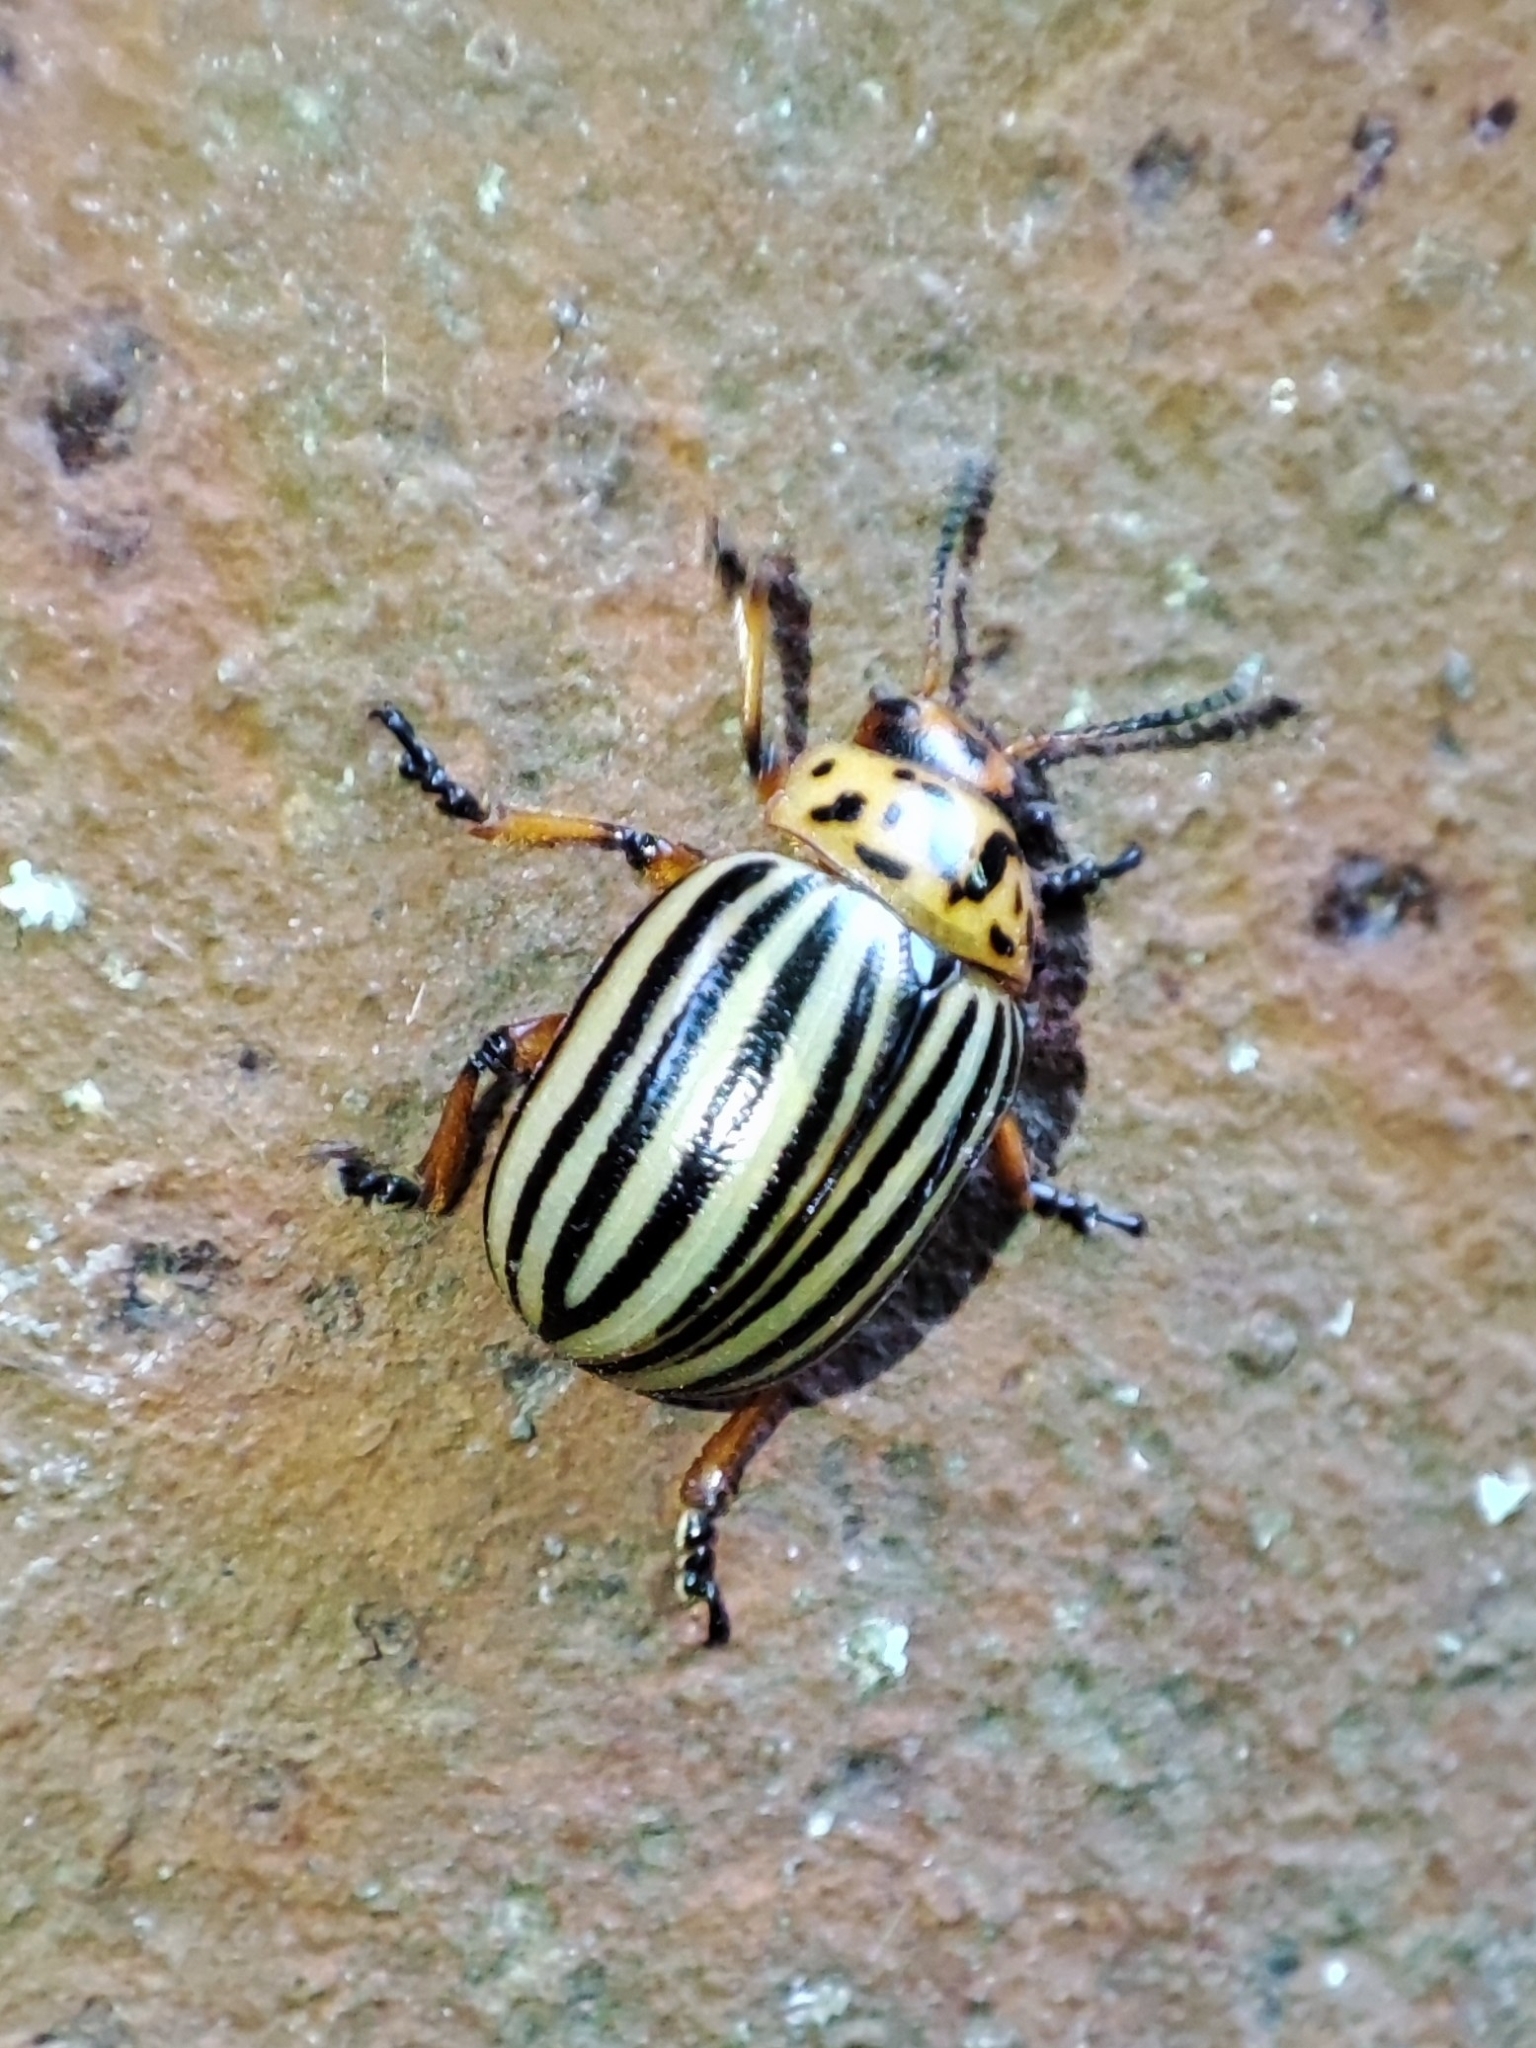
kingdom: Animalia
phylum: Arthropoda
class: Insecta
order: Coleoptera
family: Chrysomelidae
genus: Leptinotarsa
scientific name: Leptinotarsa decemlineata
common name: Colorado potato beetle
